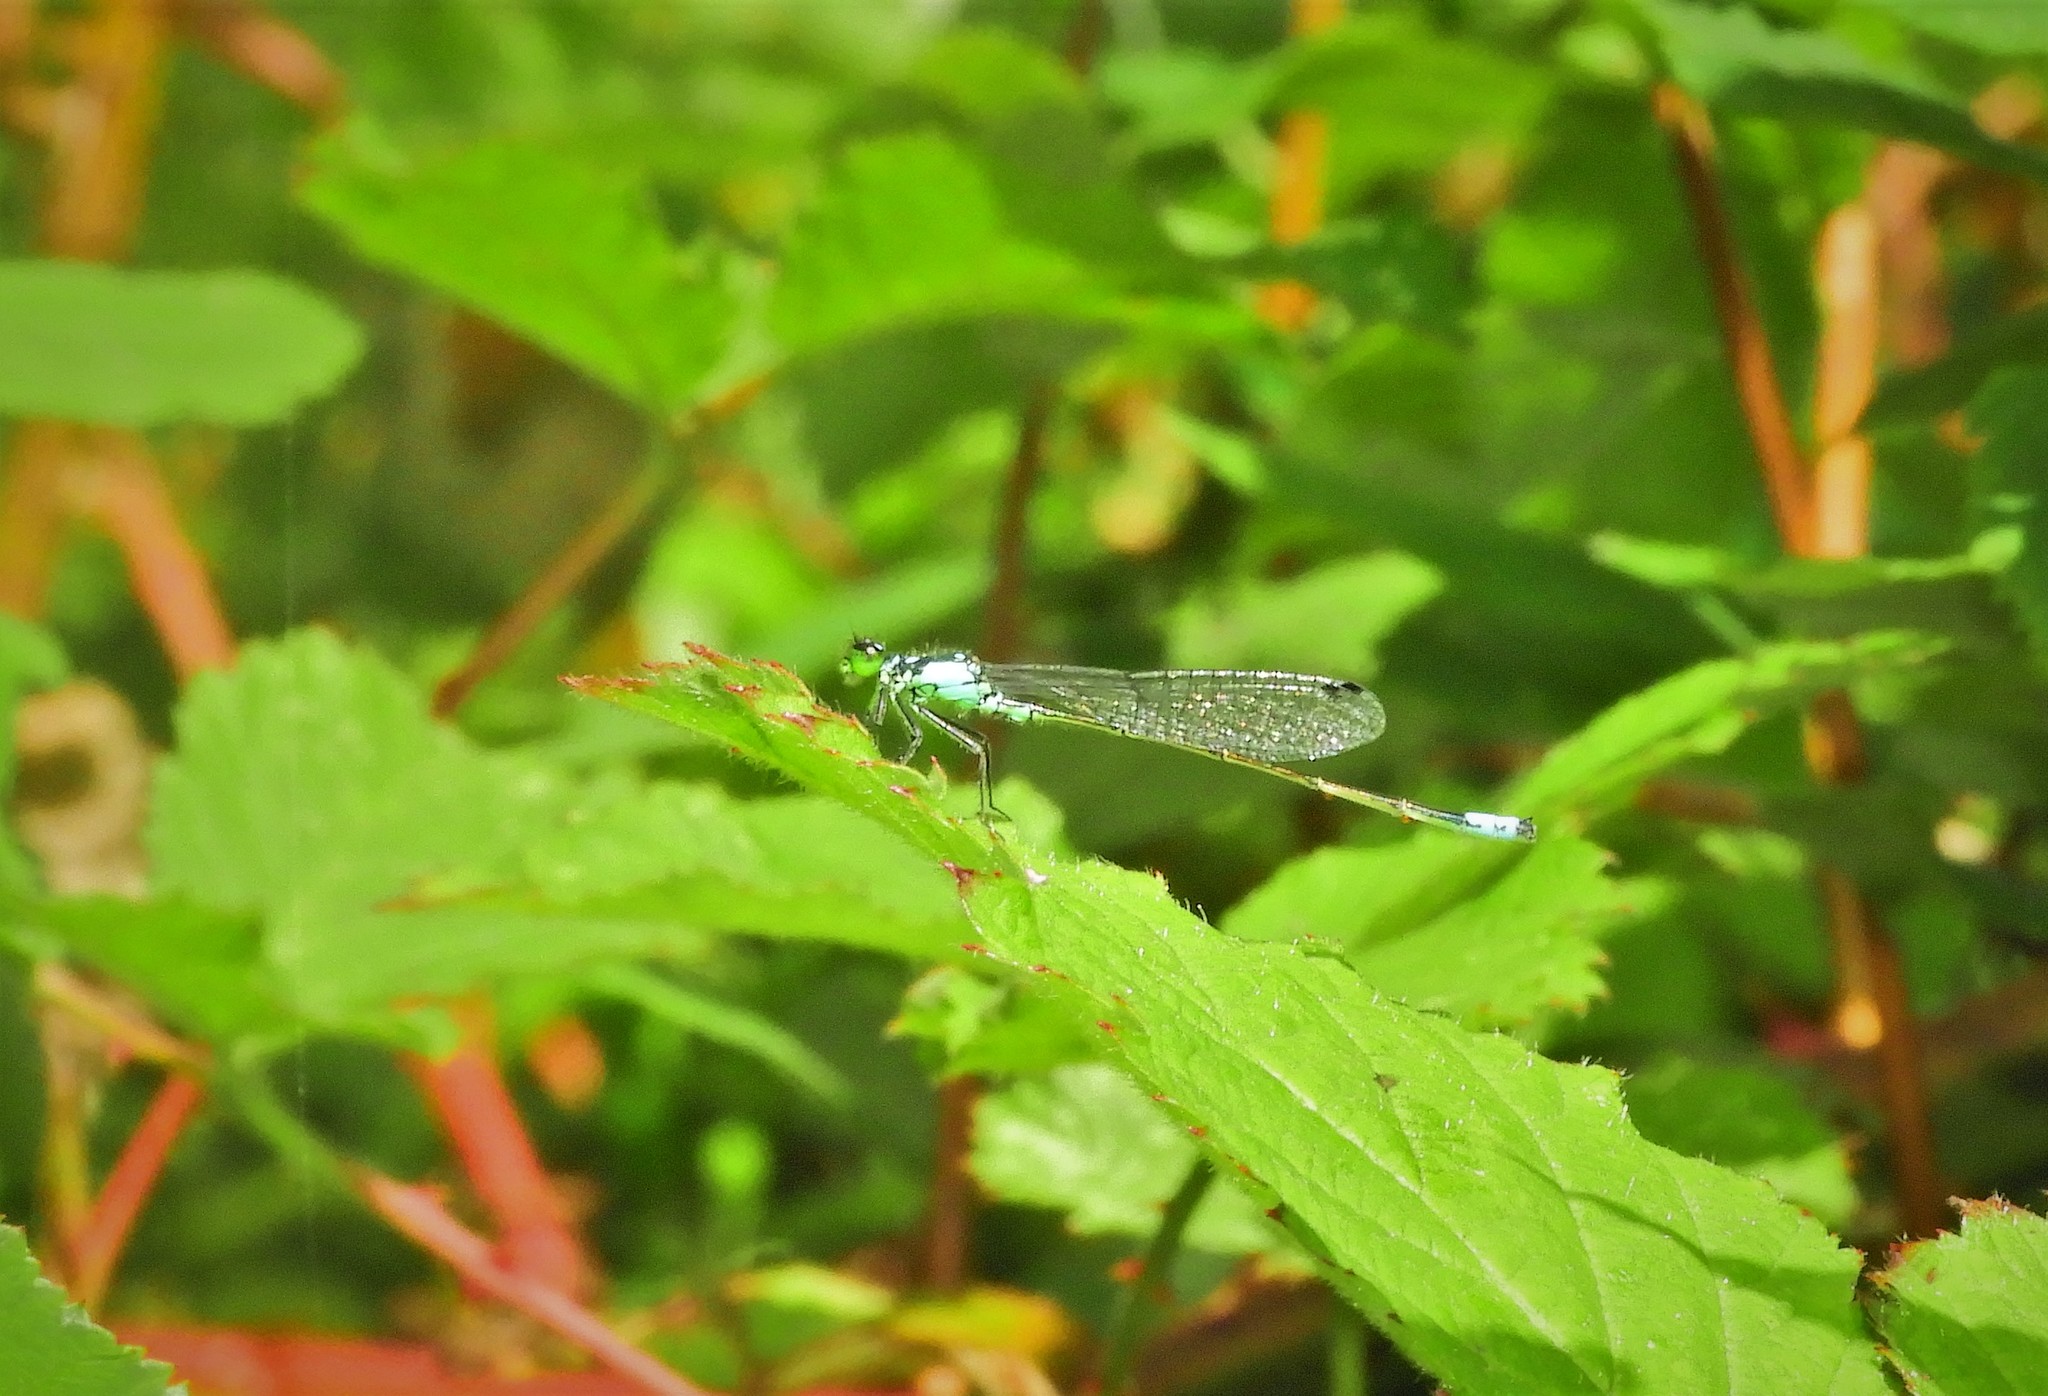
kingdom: Animalia
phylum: Arthropoda
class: Insecta
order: Odonata
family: Coenagrionidae
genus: Ischnura
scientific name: Ischnura cervula
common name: Pacific forktail
